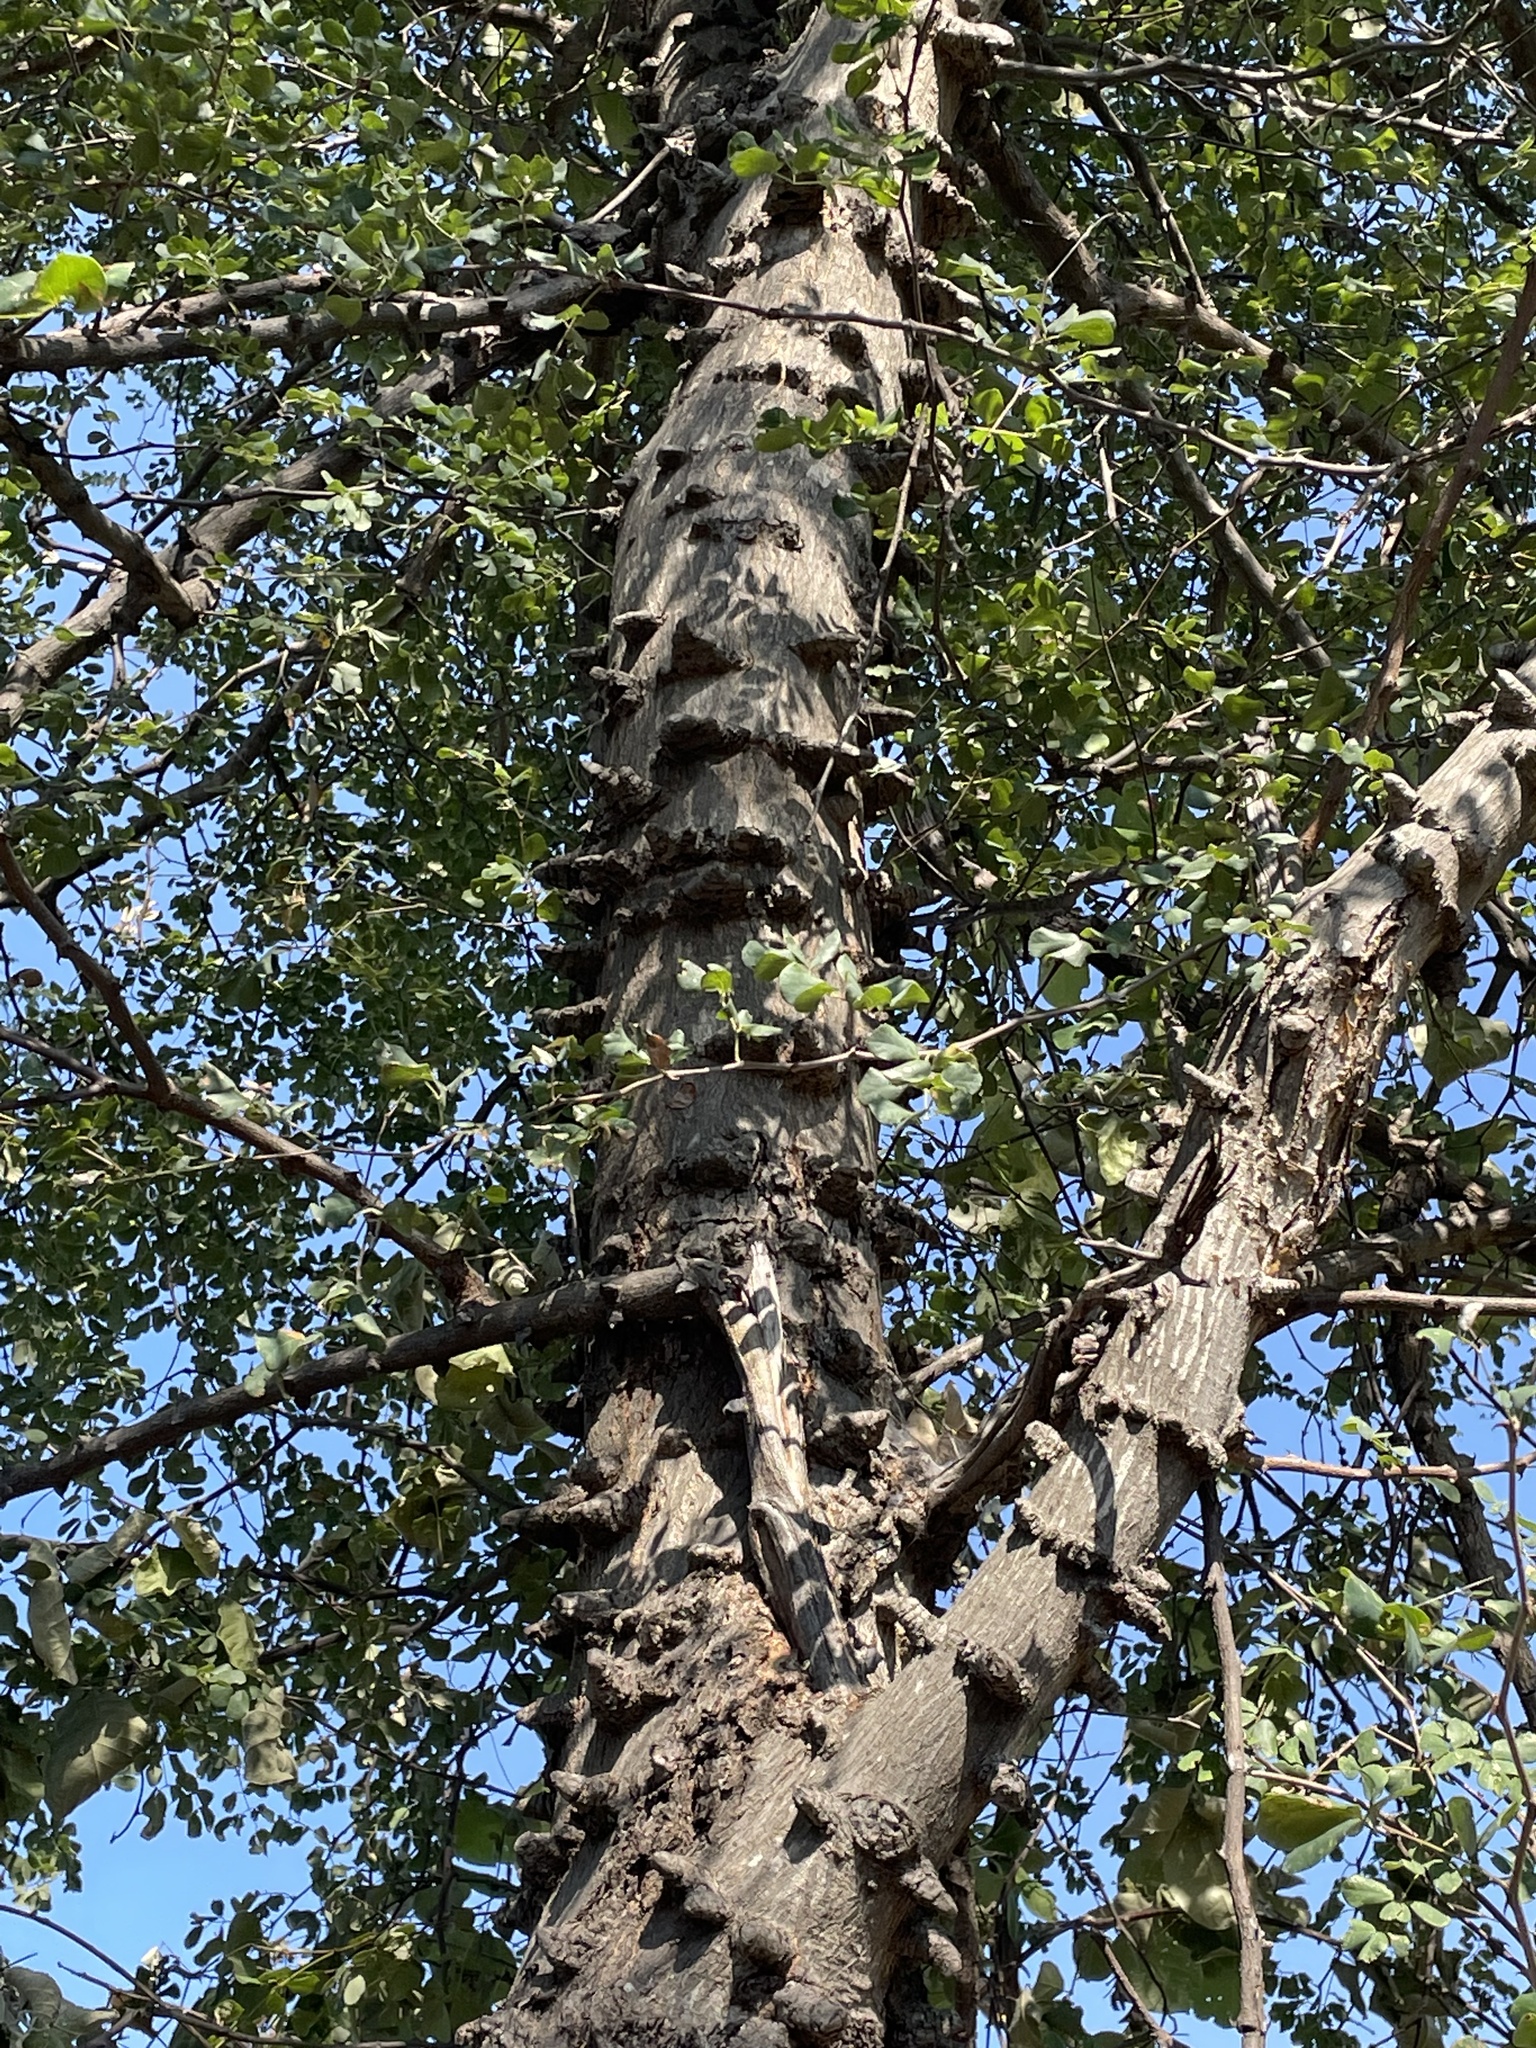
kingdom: Plantae
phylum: Tracheophyta
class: Magnoliopsida
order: Fabales
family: Fabaceae
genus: Senegalia
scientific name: Senegalia nigrescens
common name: Knobthorn
